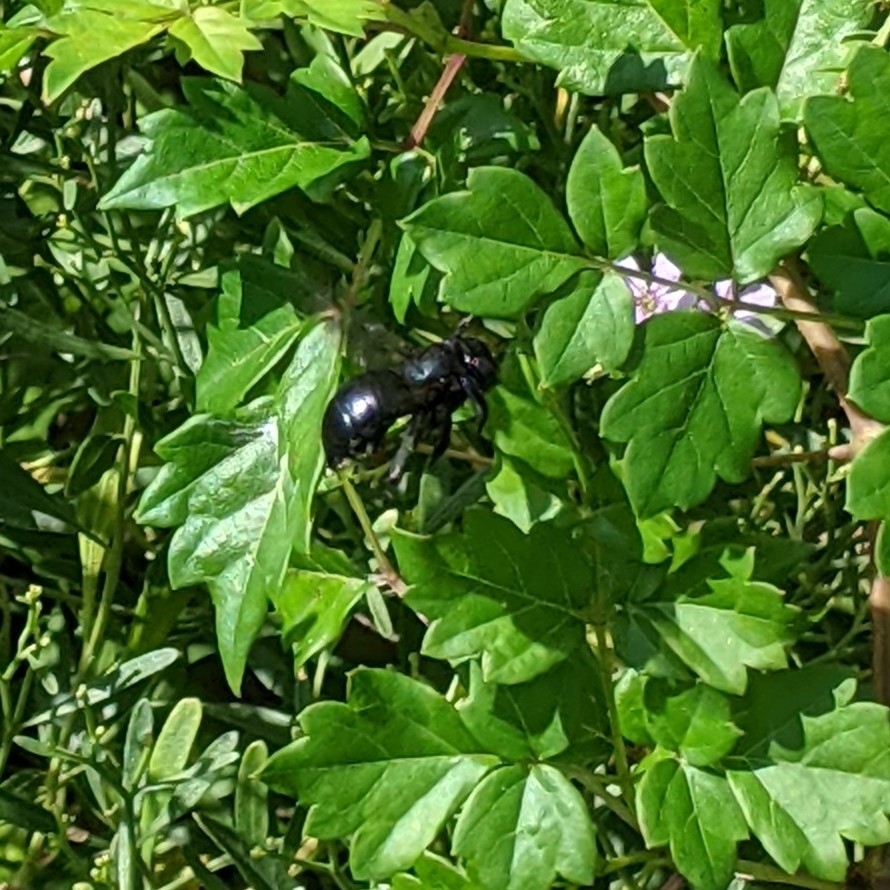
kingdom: Animalia
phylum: Arthropoda
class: Insecta
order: Hymenoptera
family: Apidae
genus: Xylocopa
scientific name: Xylocopa micans
